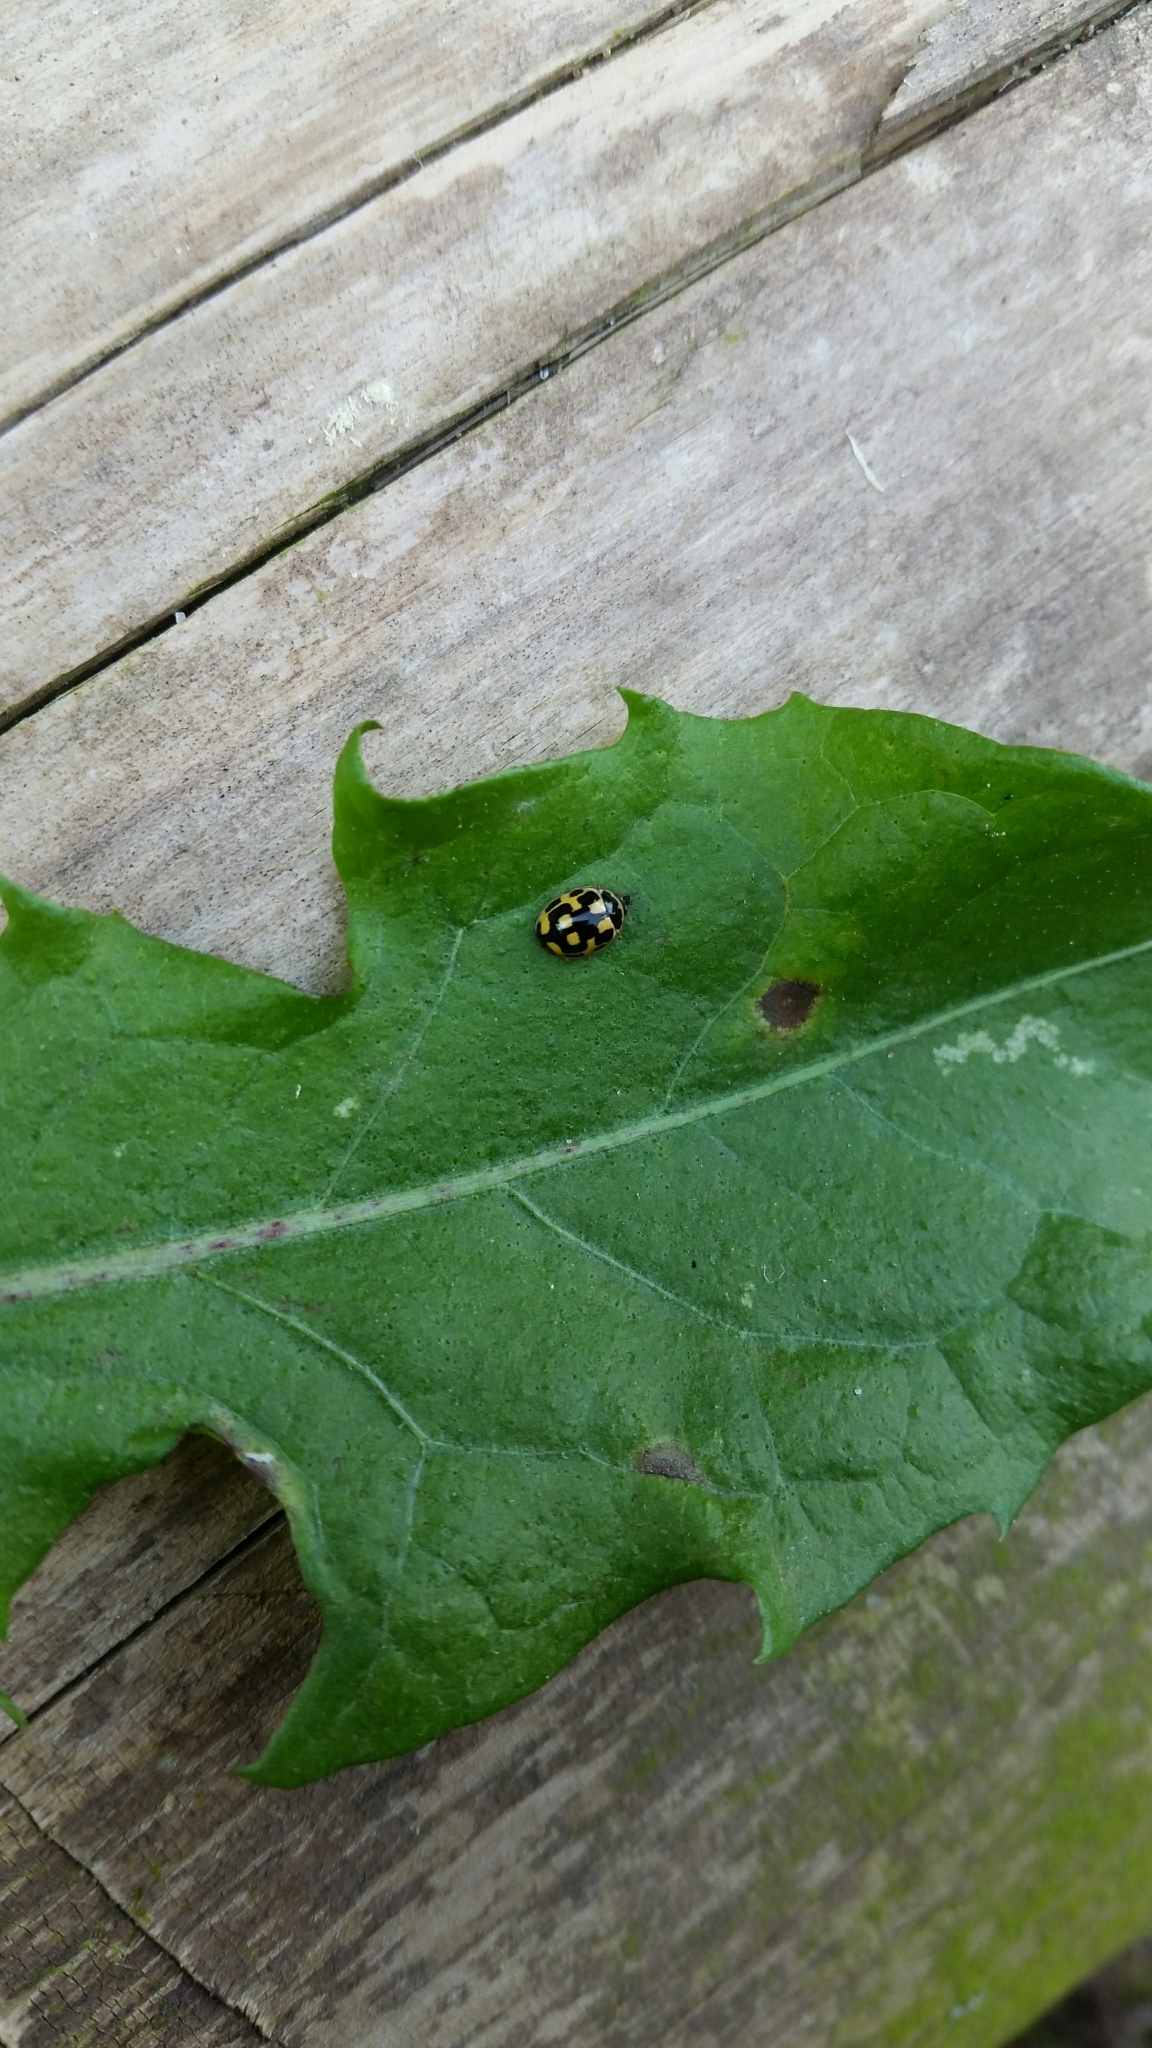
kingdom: Animalia
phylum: Arthropoda
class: Insecta
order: Coleoptera
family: Coccinellidae
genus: Propylaea
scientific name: Propylaea quatuordecimpunctata
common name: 14-spotted ladybird beetle
